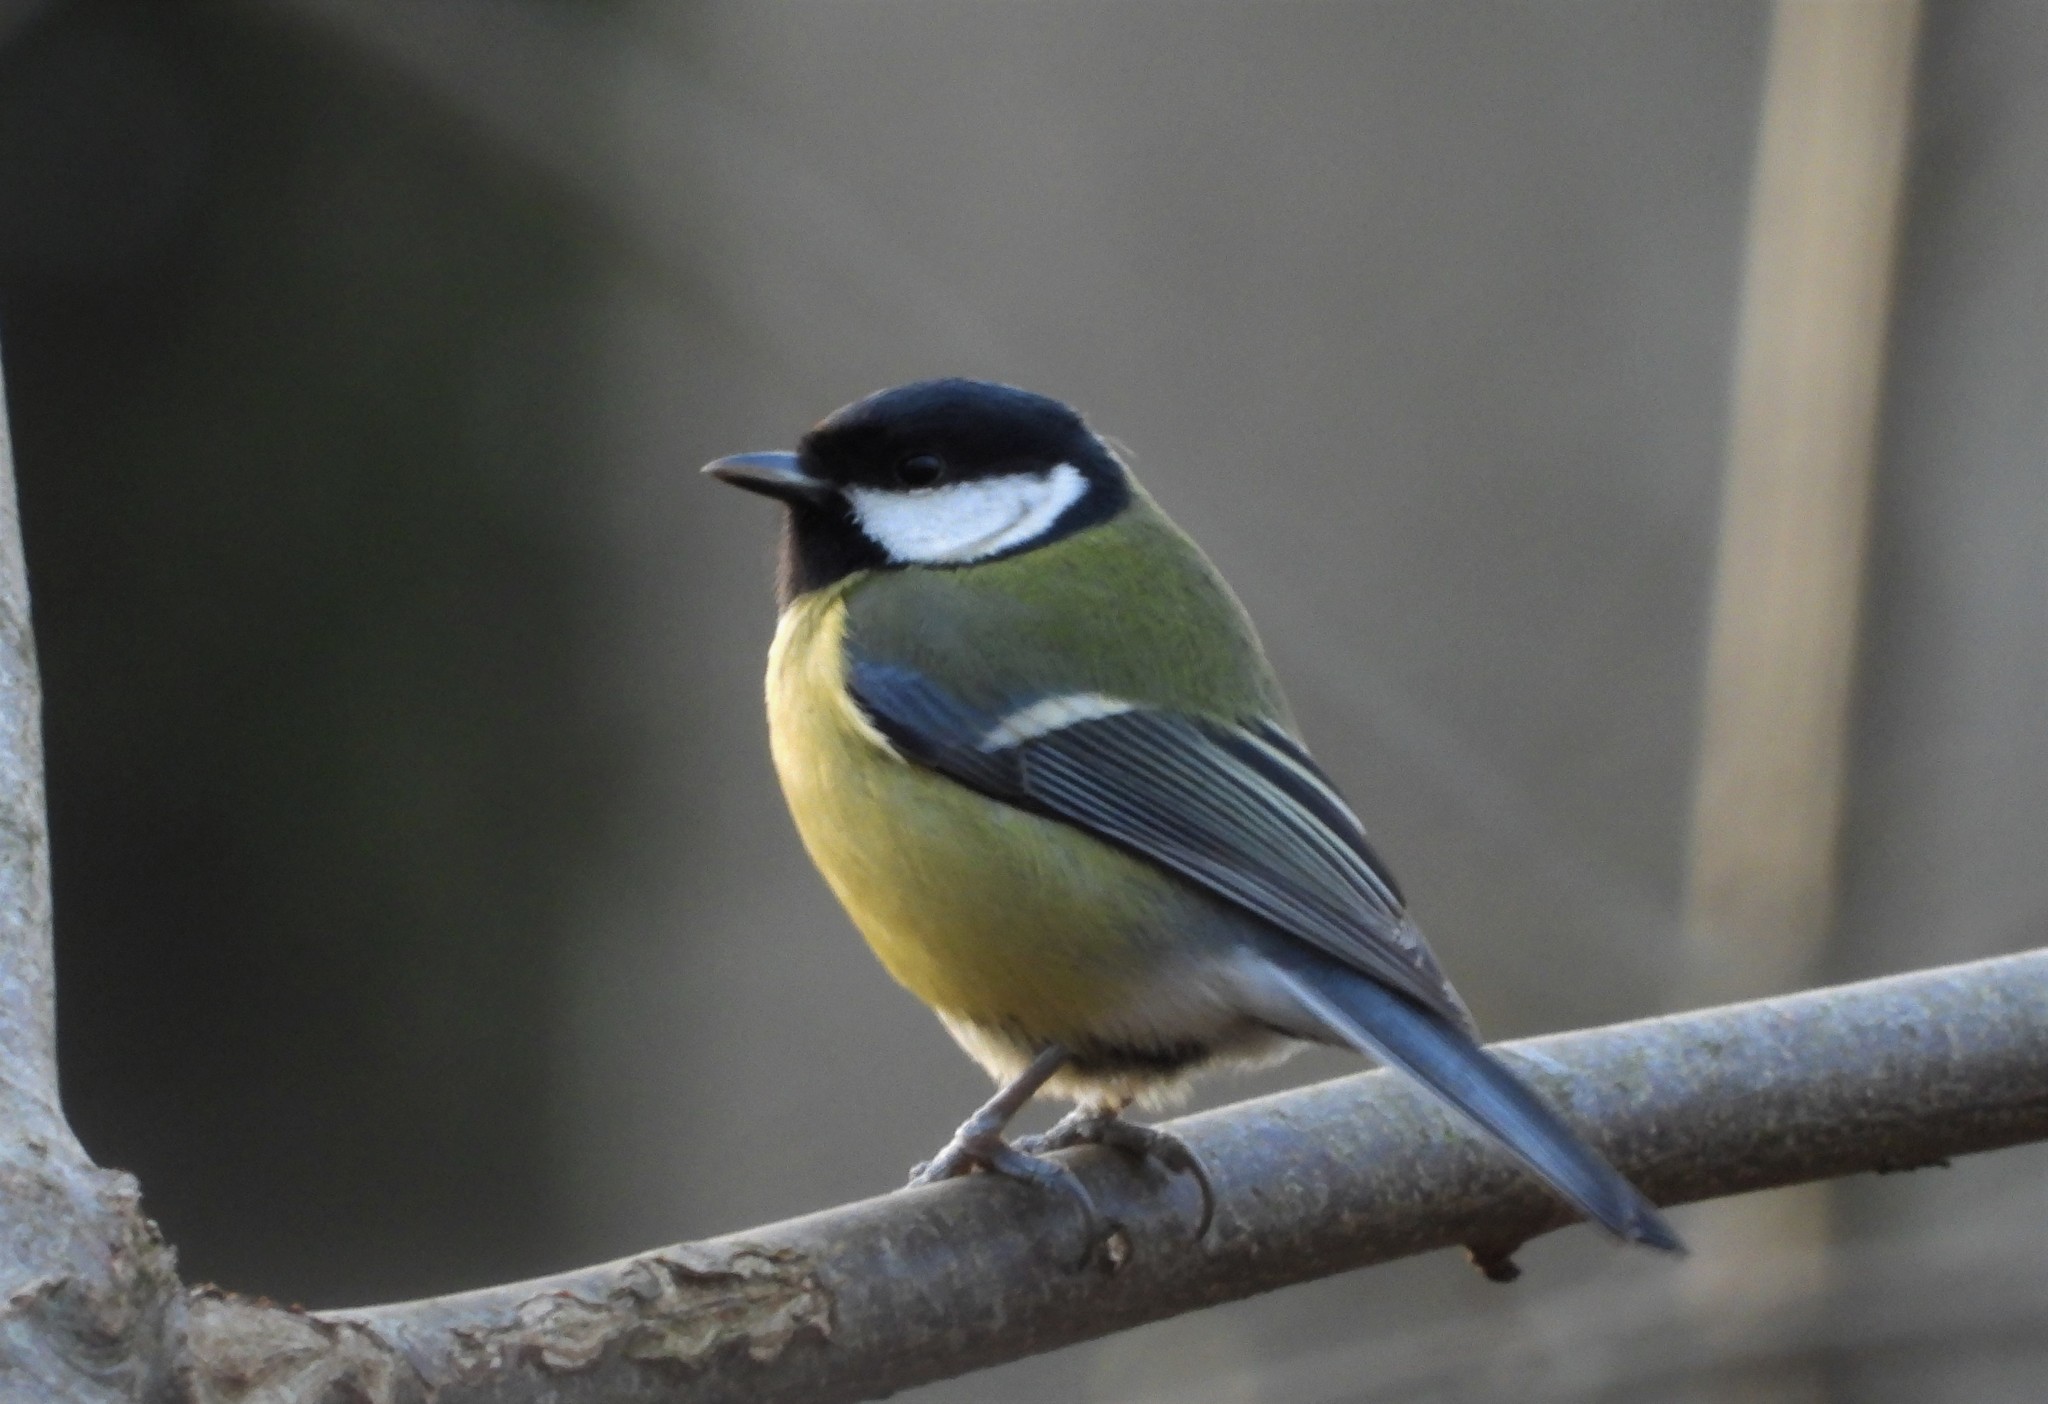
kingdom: Animalia
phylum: Chordata
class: Aves
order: Passeriformes
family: Paridae
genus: Parus
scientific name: Parus major
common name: Great tit
